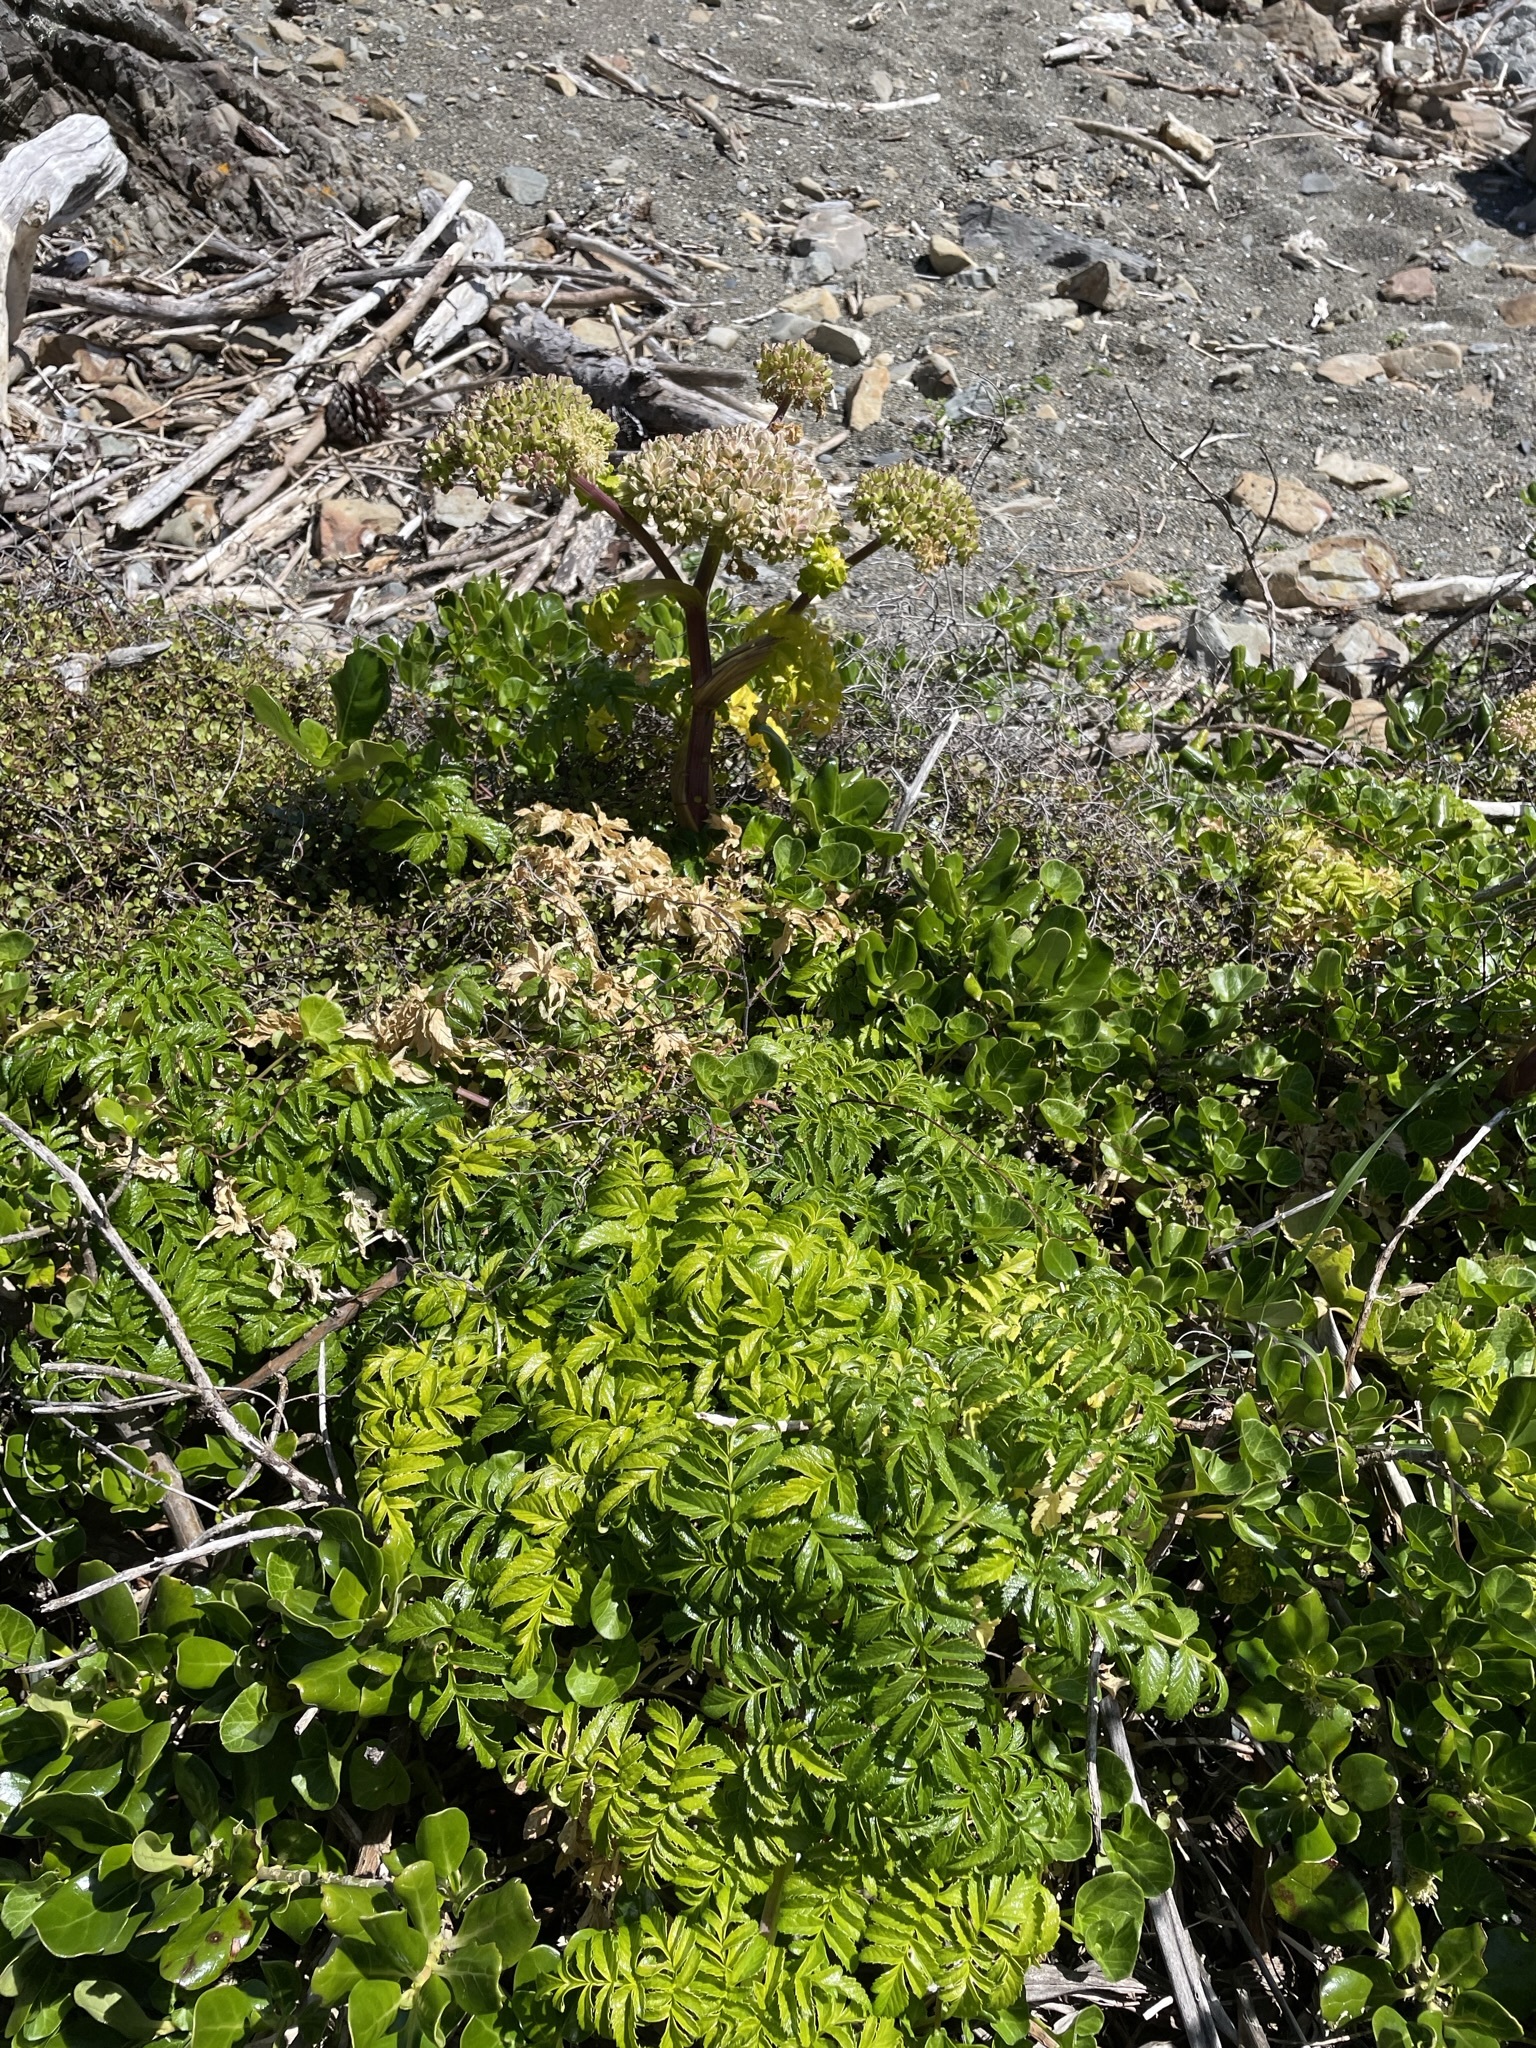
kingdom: Plantae
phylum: Tracheophyta
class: Magnoliopsida
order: Apiales
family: Apiaceae
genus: Angelica
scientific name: Angelica pachycarpa
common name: Portuguese angelica
